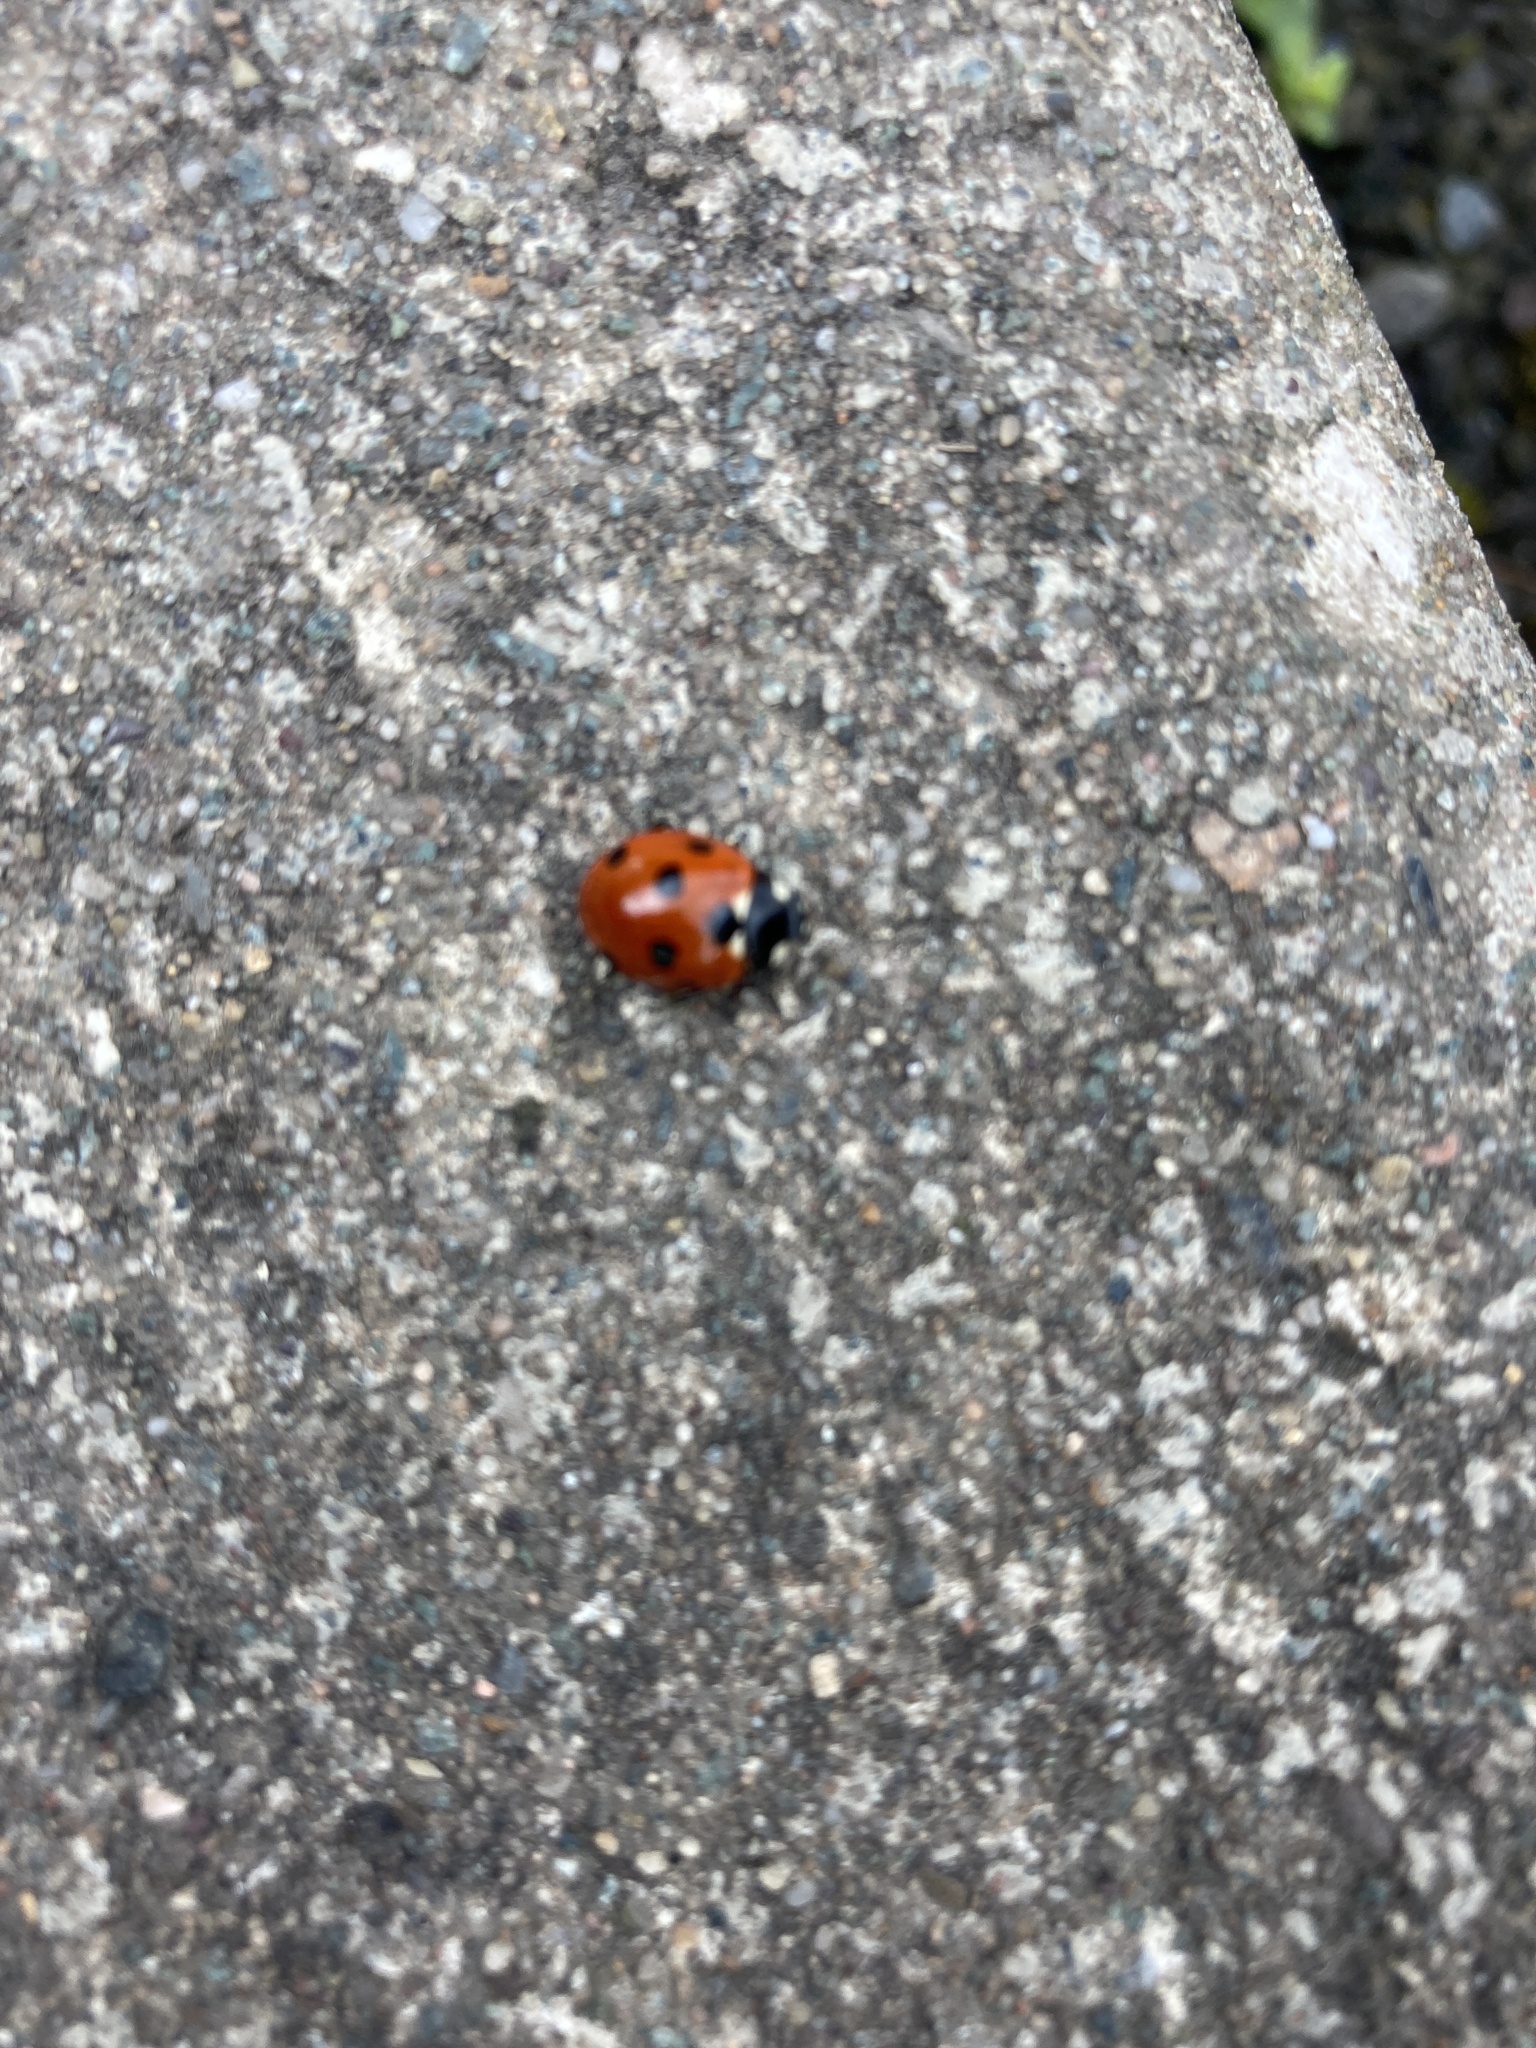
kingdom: Animalia
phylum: Arthropoda
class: Insecta
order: Coleoptera
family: Coccinellidae
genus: Coccinella
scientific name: Coccinella septempunctata
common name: Sevenspotted lady beetle
